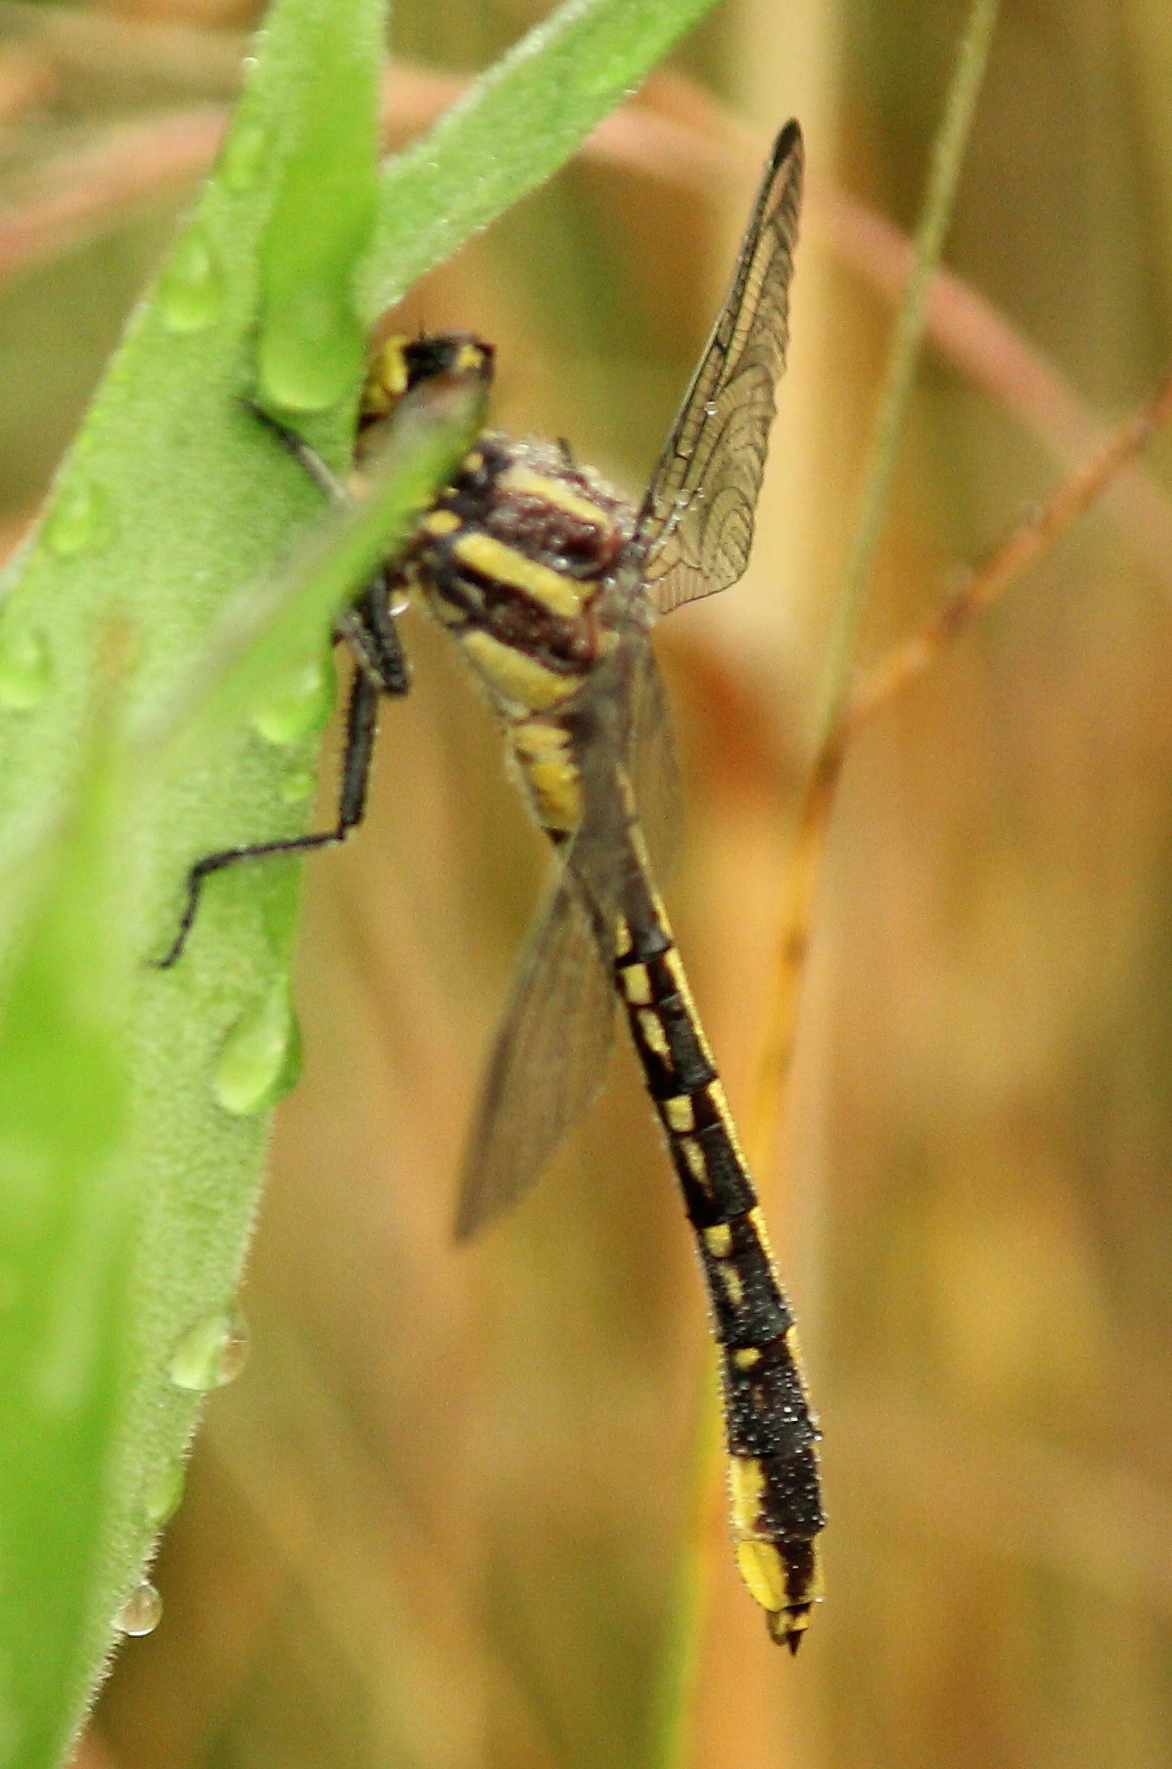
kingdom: Animalia
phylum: Arthropoda
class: Insecta
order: Odonata
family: Gomphidae
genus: Phanogomphus
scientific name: Phanogomphus graslinellus
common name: Pronghorn clubtail
